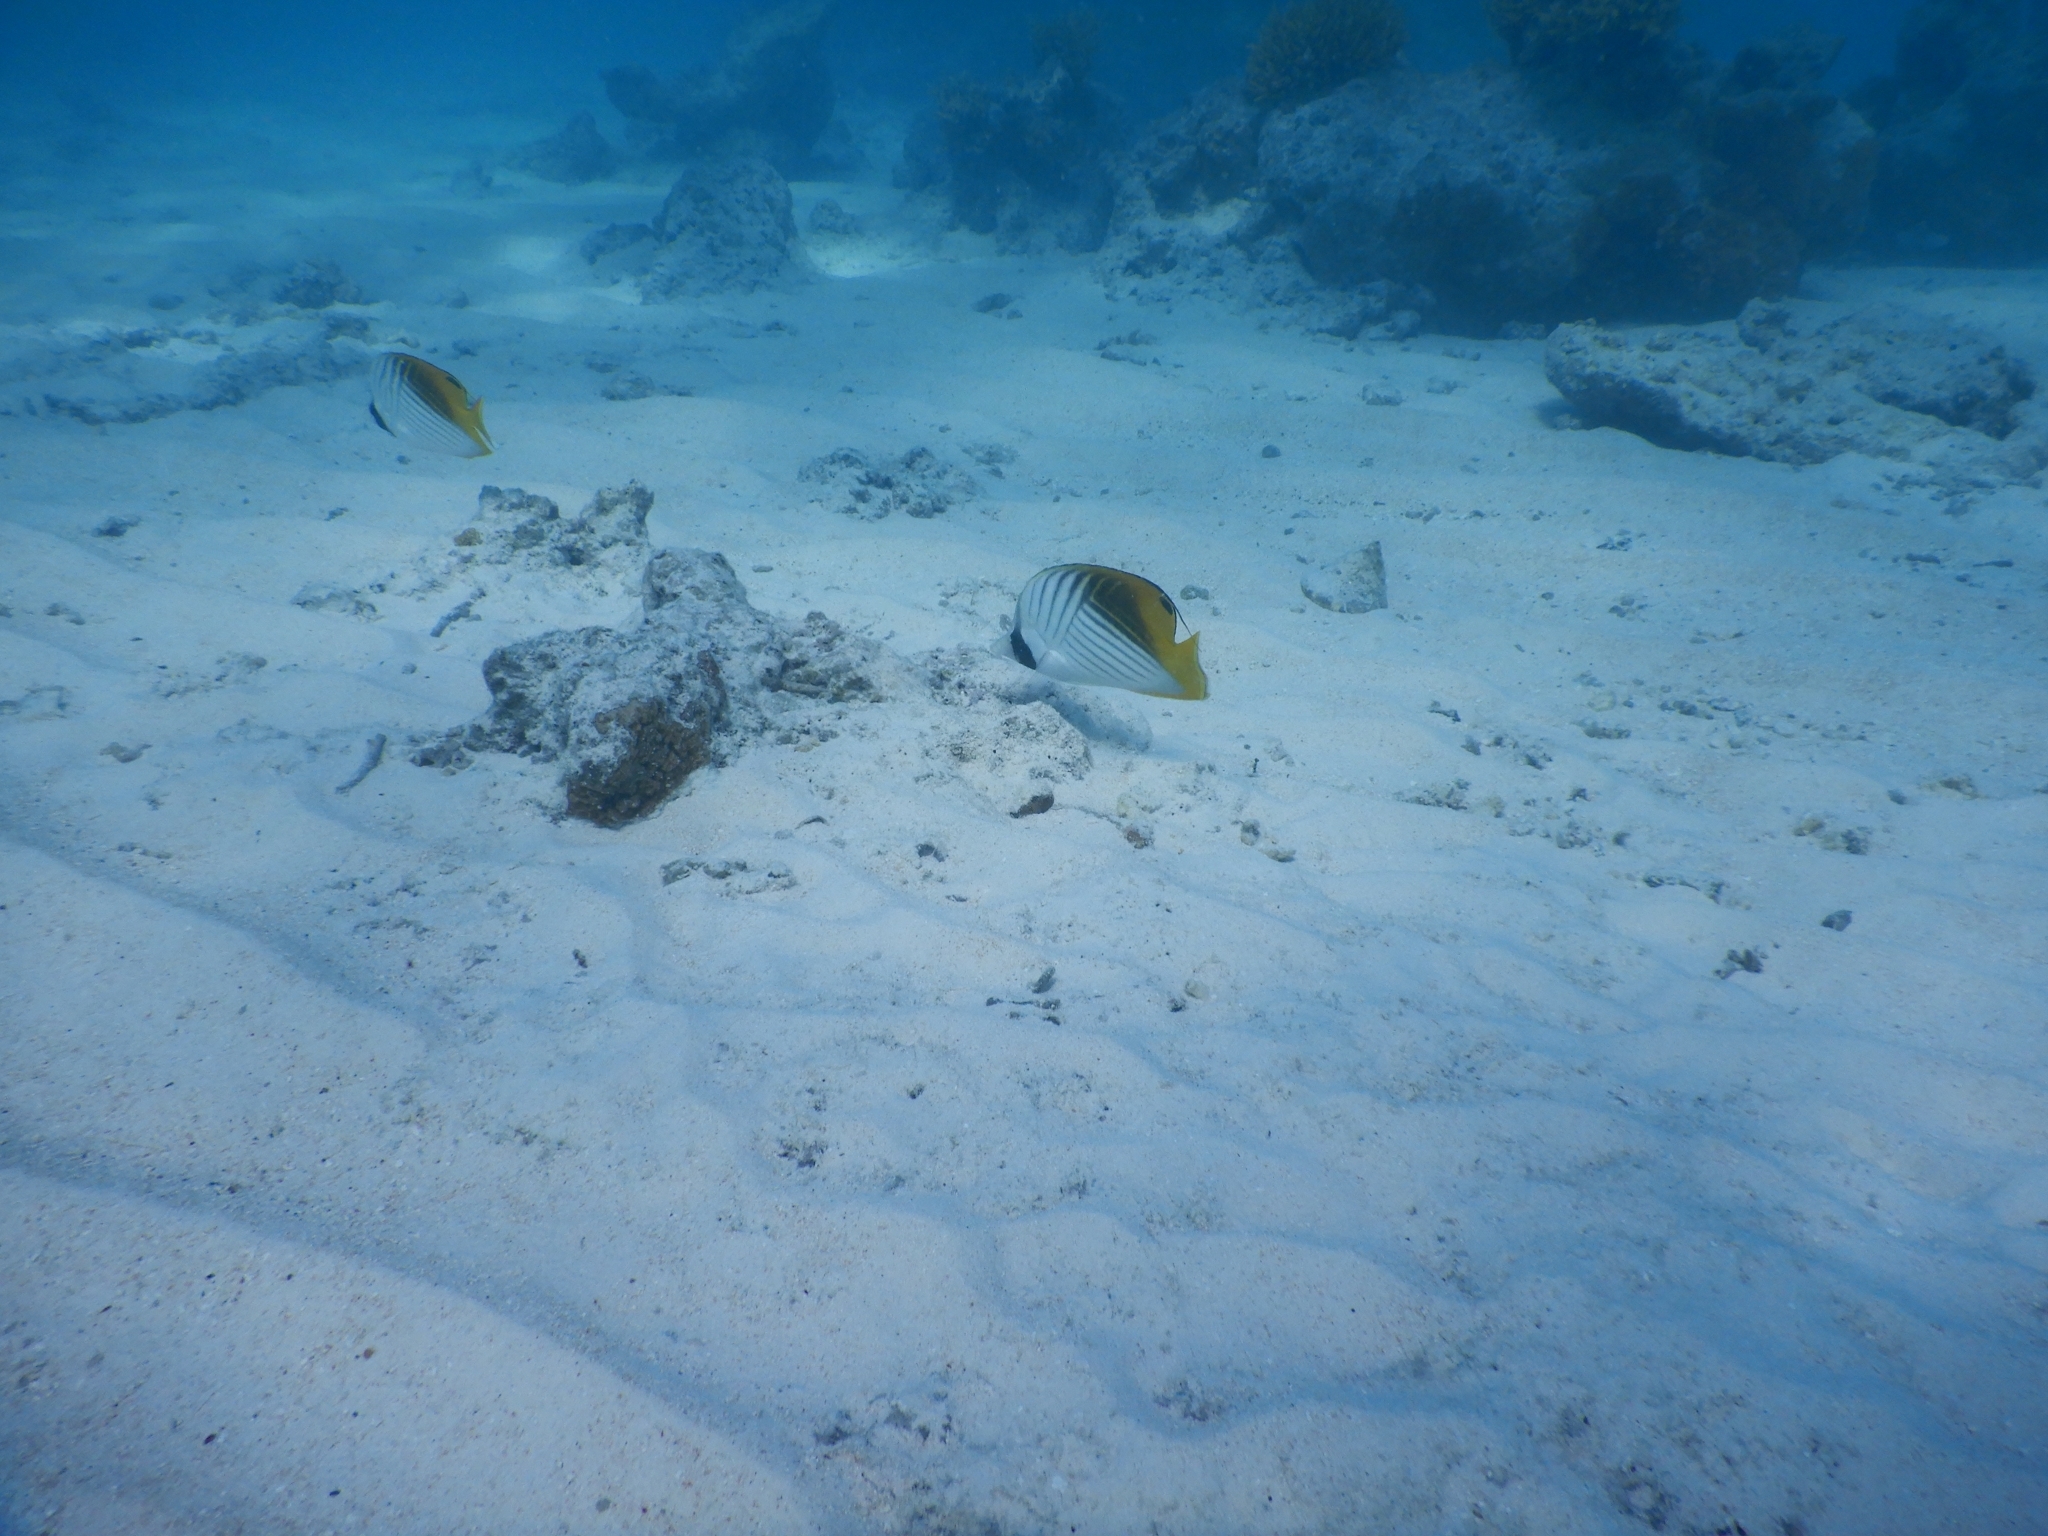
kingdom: Animalia
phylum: Chordata
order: Perciformes
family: Chaetodontidae
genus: Chaetodon
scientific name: Chaetodon auriga
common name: Threadfin butterflyfish
